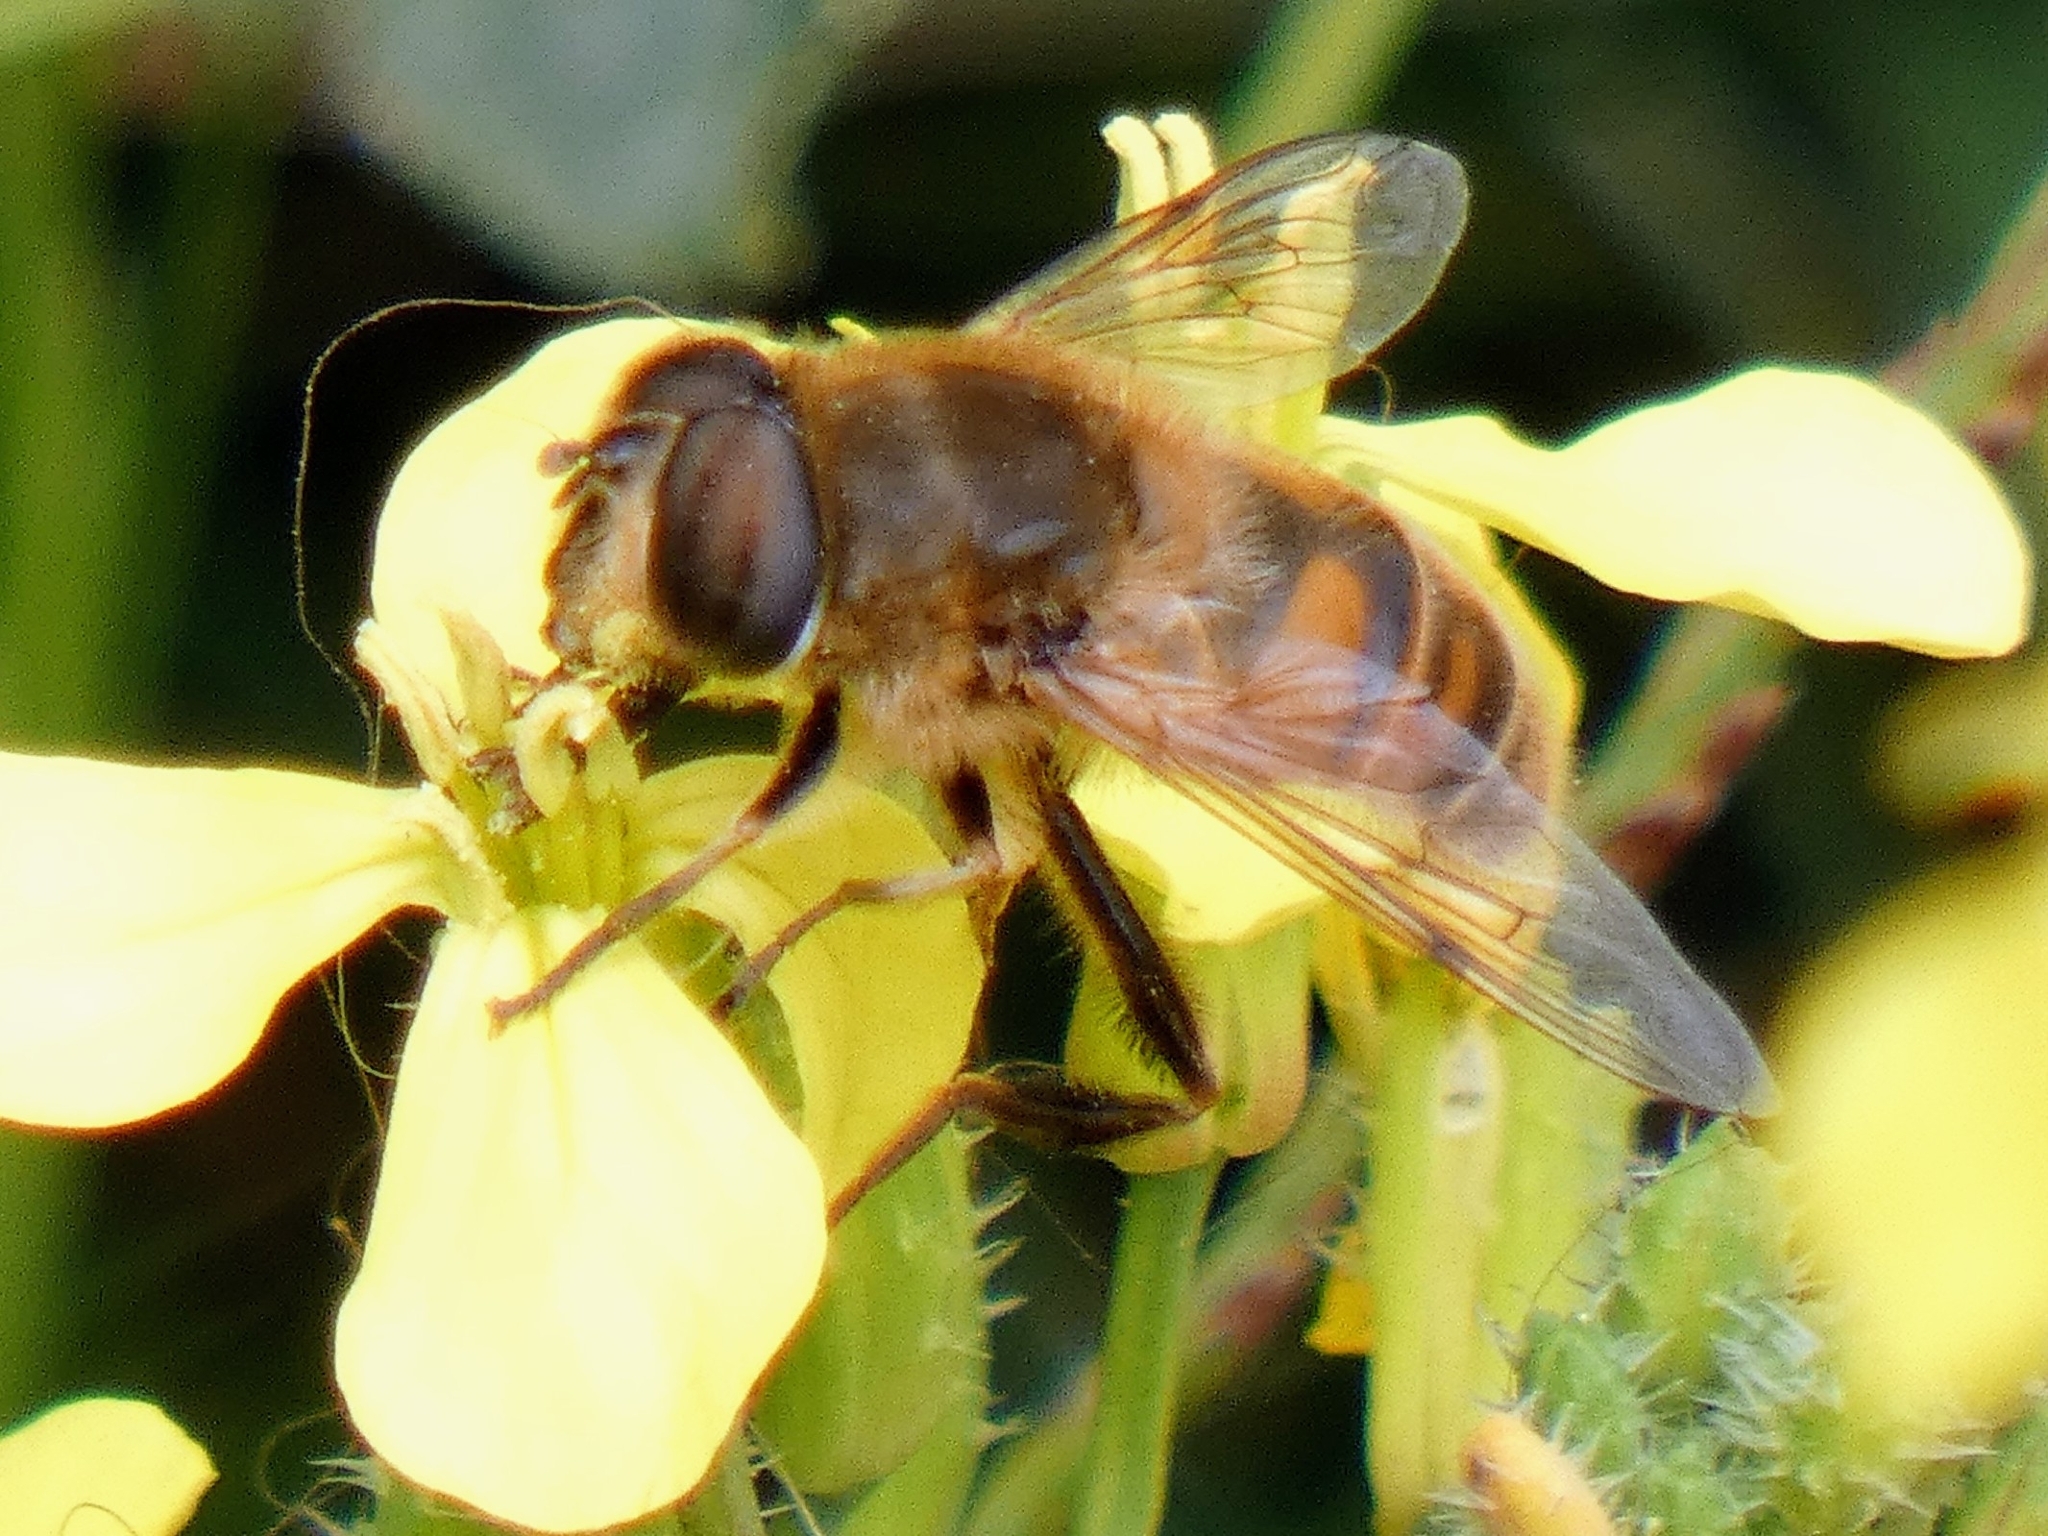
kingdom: Animalia
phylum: Arthropoda
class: Insecta
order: Diptera
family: Syrphidae
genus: Eristalis
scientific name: Eristalis tenax
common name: Drone fly
